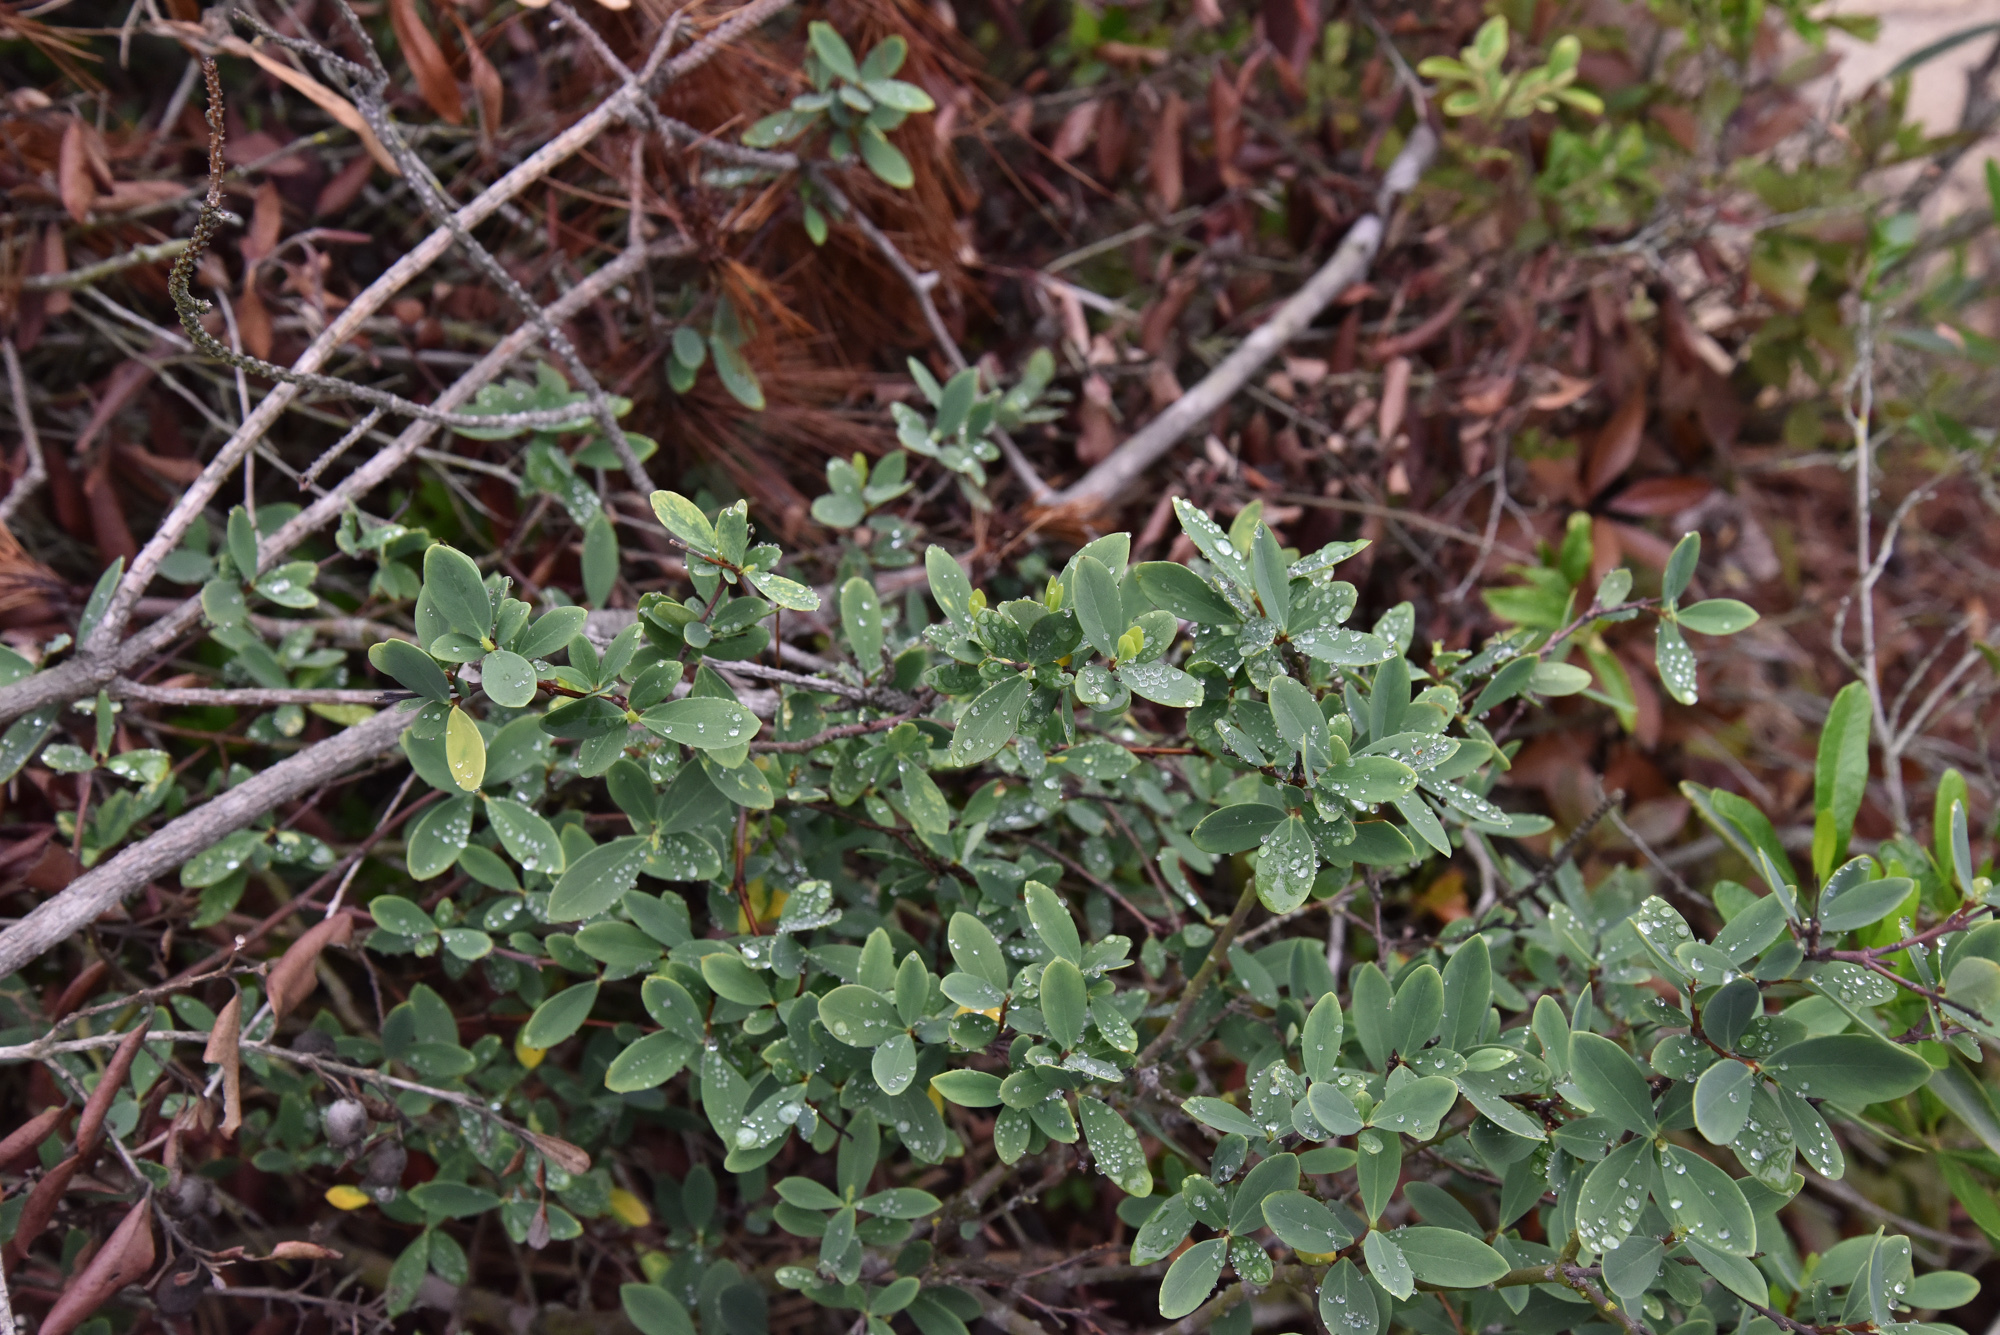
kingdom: Plantae
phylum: Tracheophyta
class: Magnoliopsida
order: Malvales
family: Thymelaeaceae
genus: Wikstroemia
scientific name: Wikstroemia indica
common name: Tiebush
